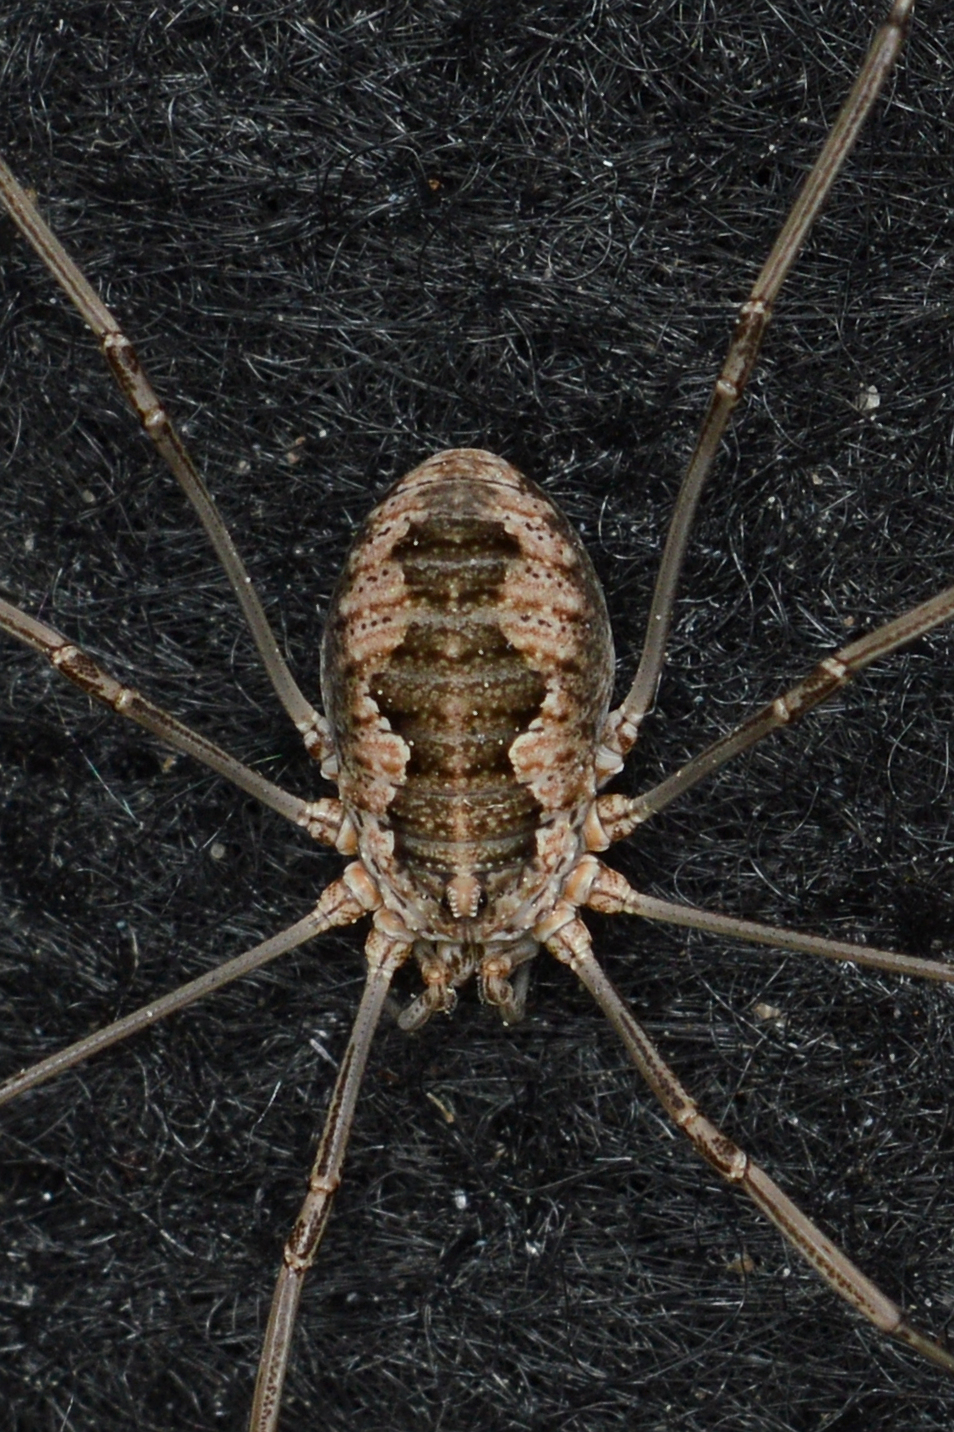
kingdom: Animalia
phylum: Arthropoda
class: Arachnida
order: Opiliones
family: Phalangiidae
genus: Phalangium
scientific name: Phalangium opilio
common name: Daddy longleg
